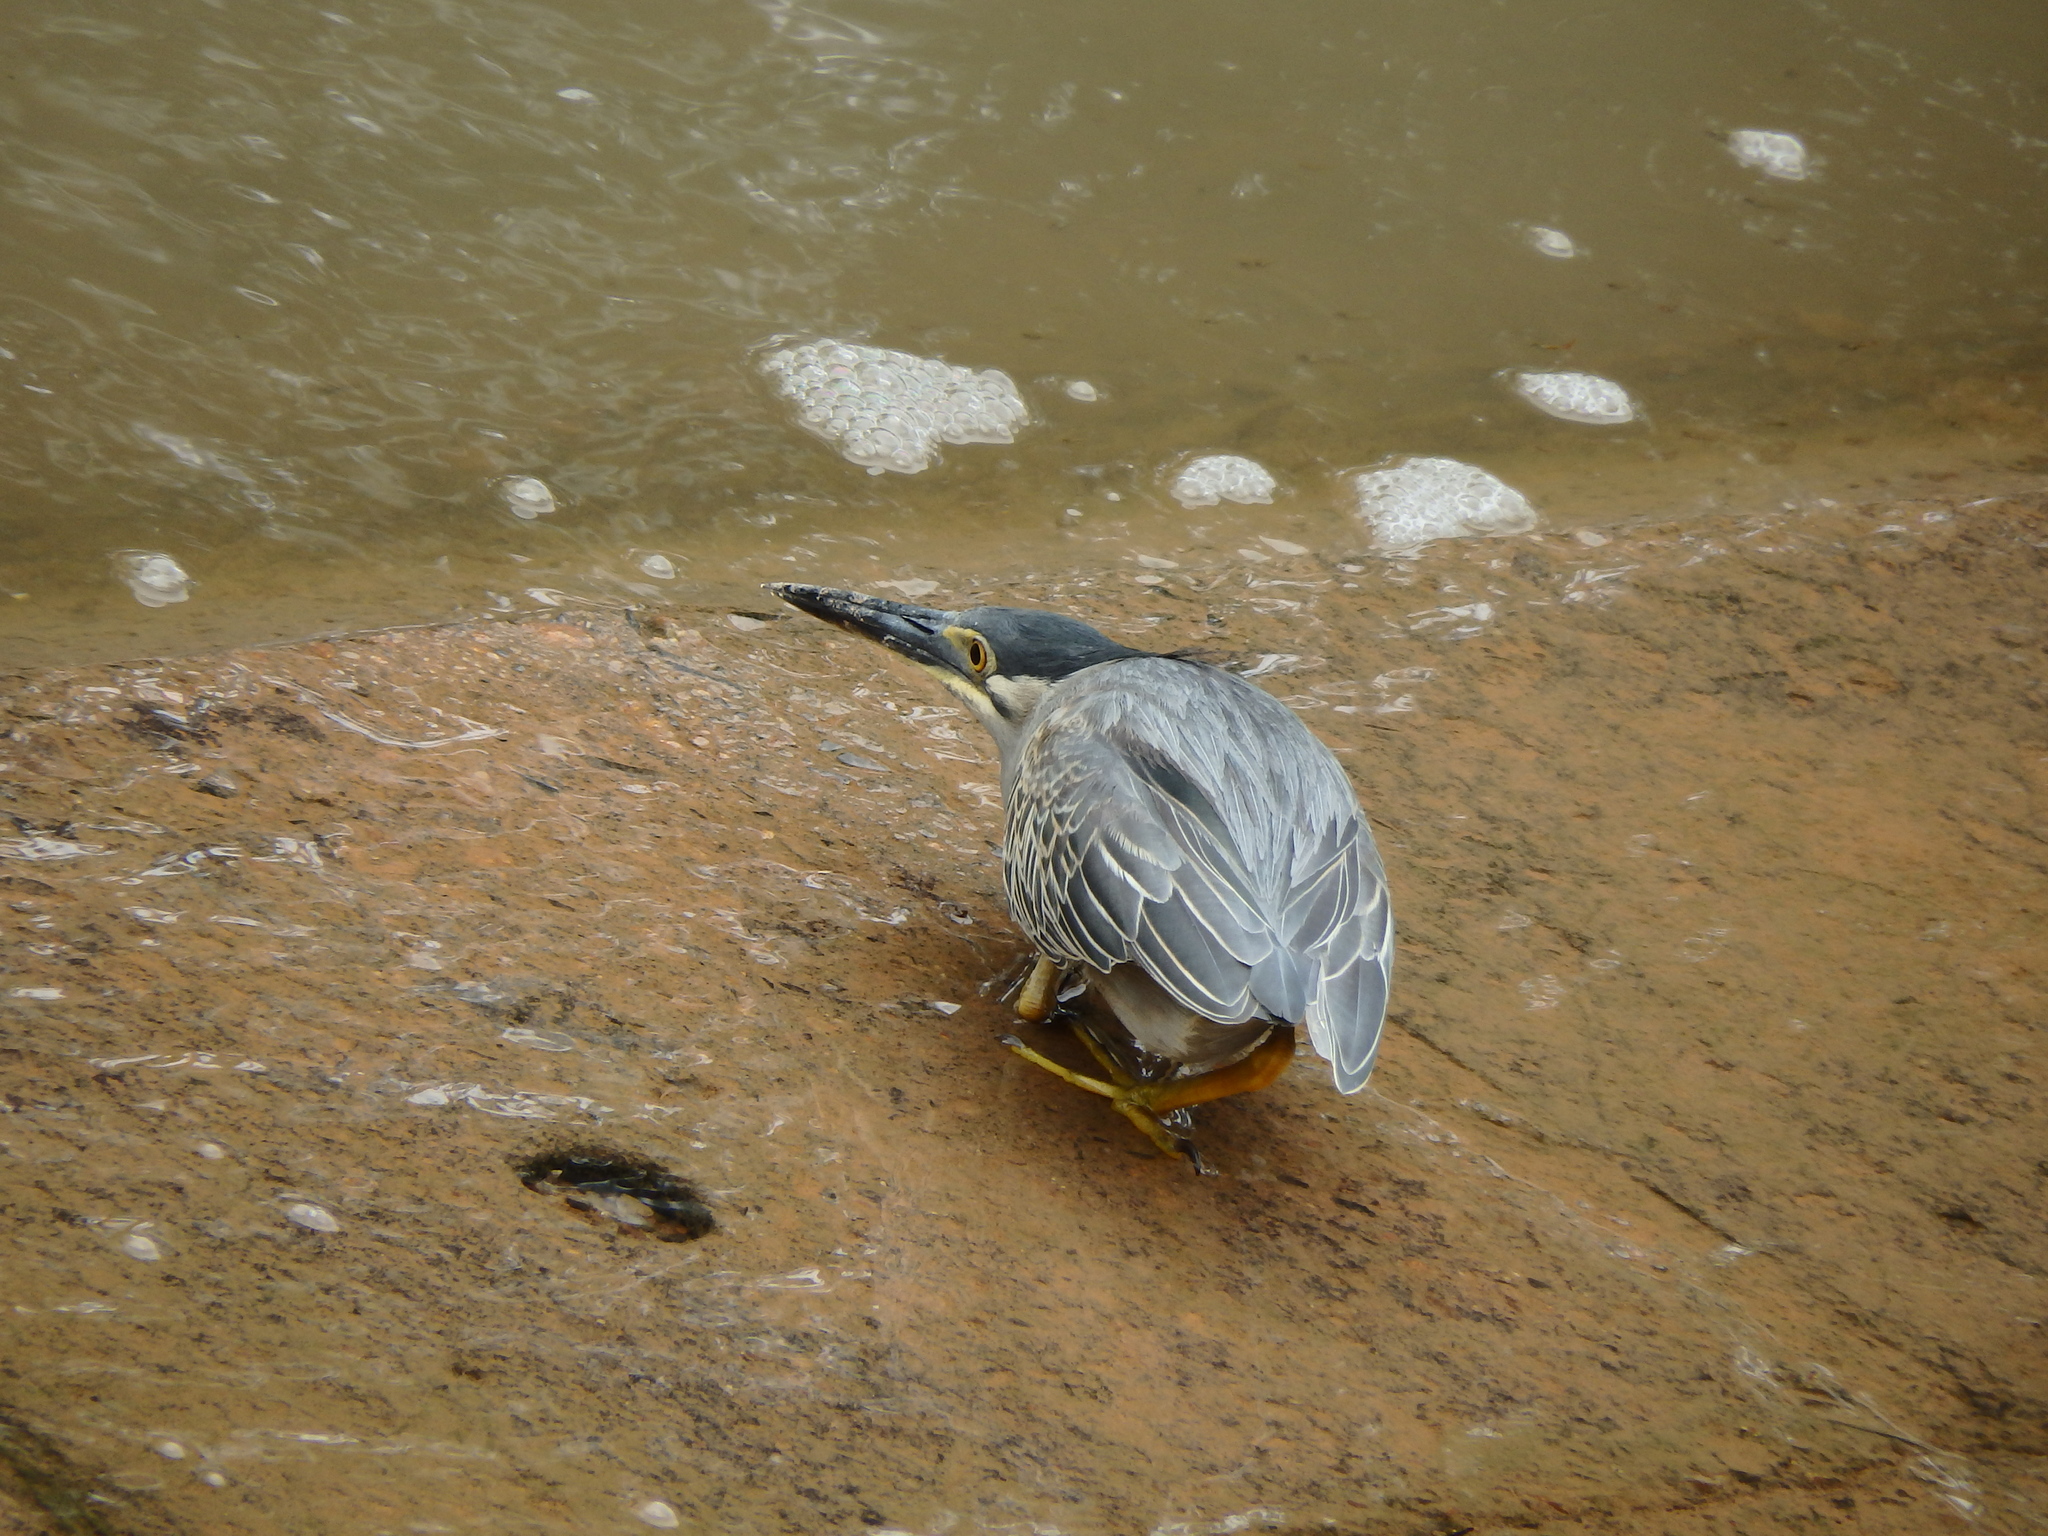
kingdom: Animalia
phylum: Chordata
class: Aves
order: Pelecaniformes
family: Ardeidae
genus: Butorides
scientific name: Butorides striata
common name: Striated heron
